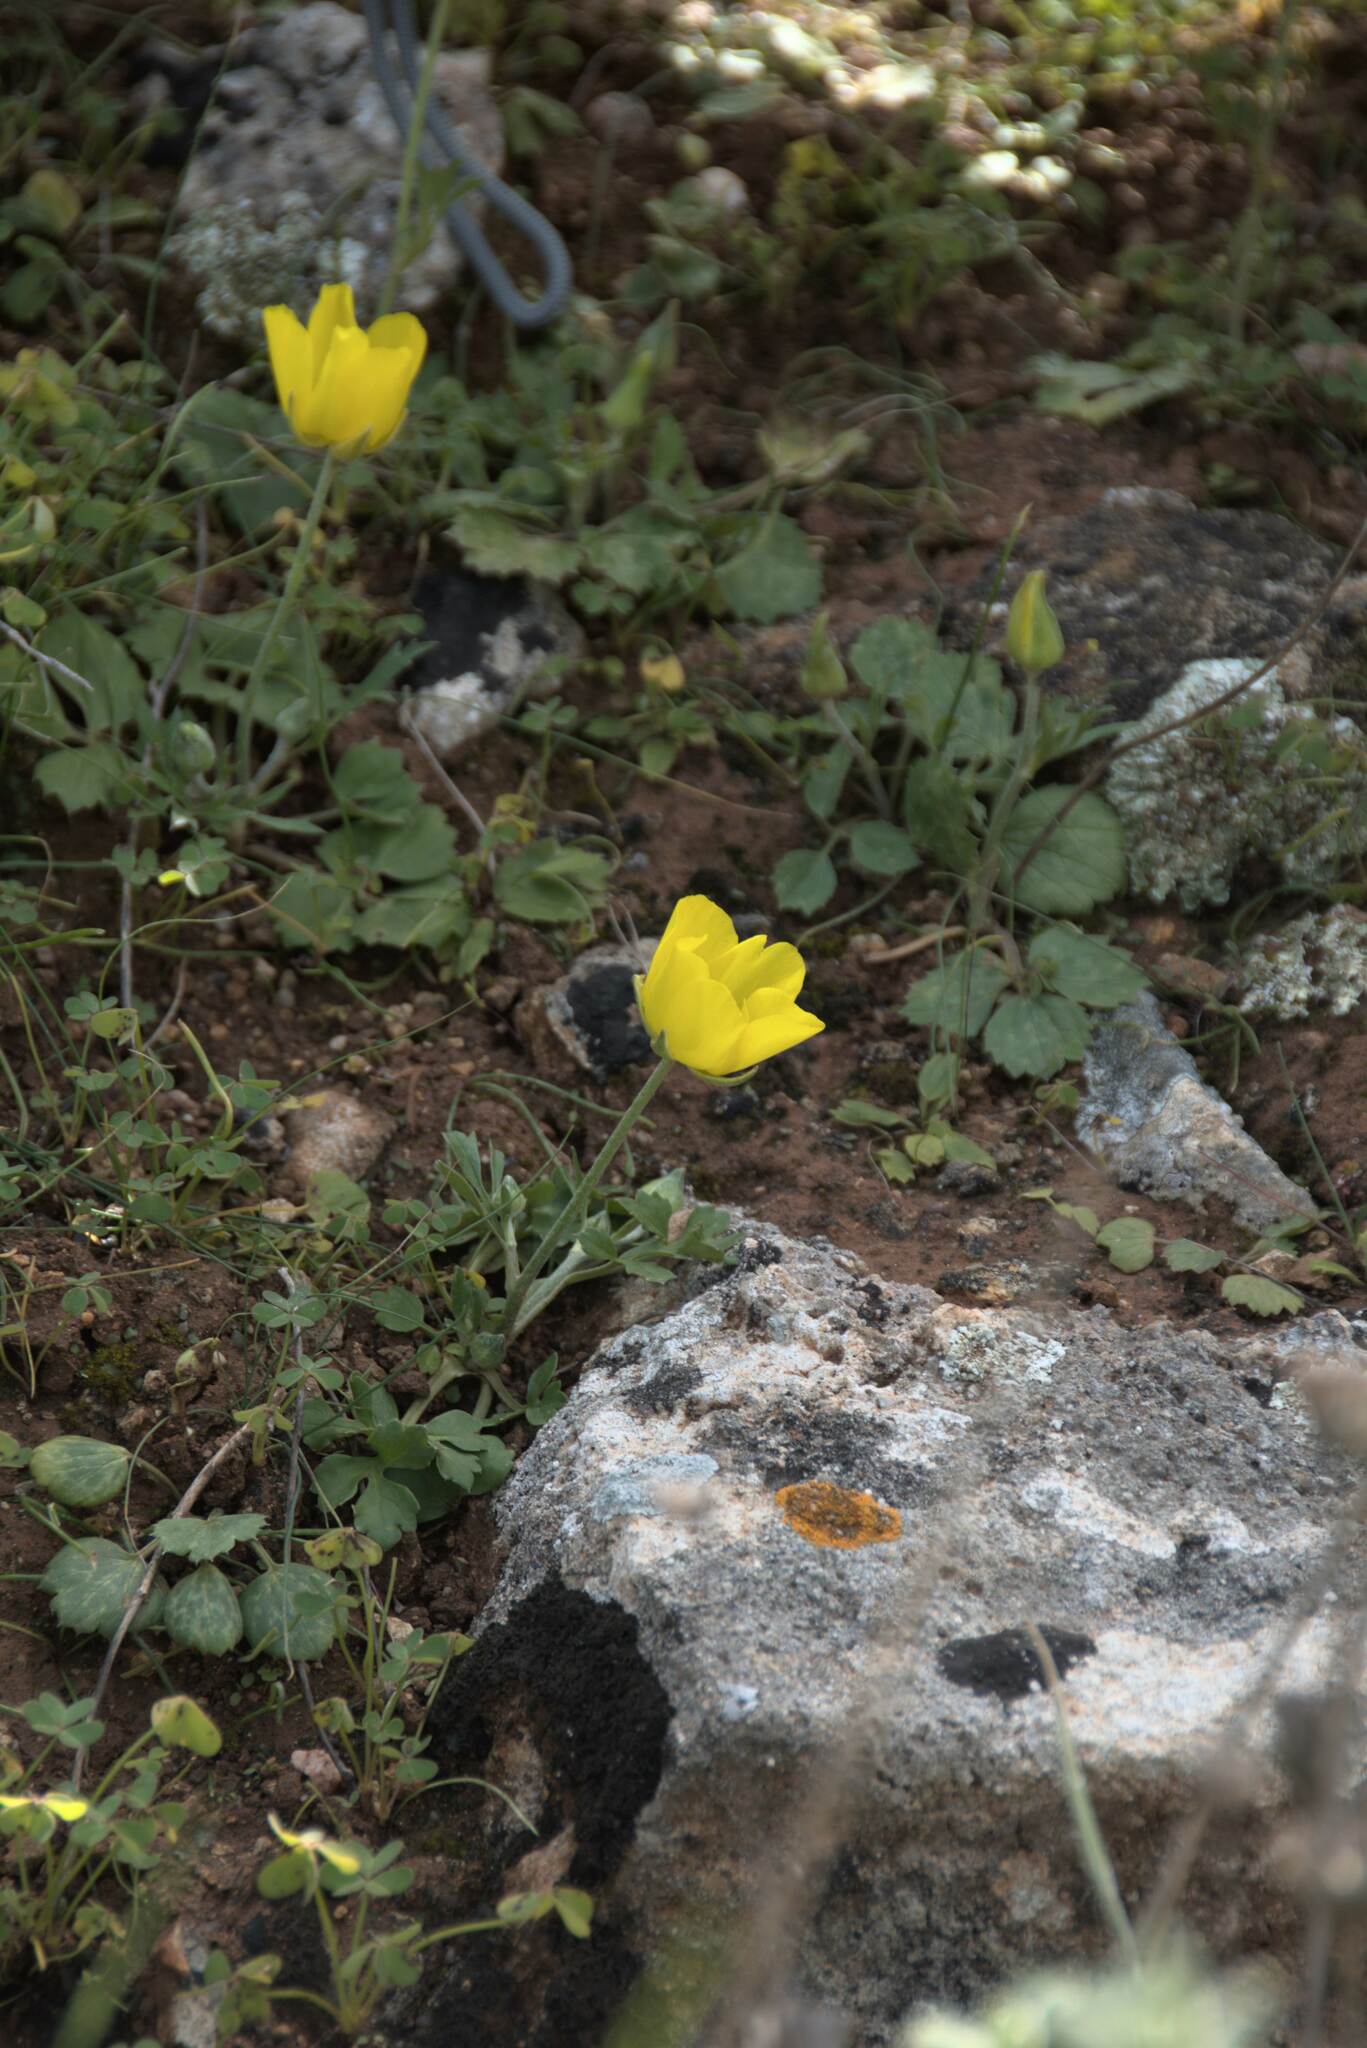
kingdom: Plantae
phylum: Tracheophyta
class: Magnoliopsida
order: Ranunculales
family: Ranunculaceae
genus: Ranunculus
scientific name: Ranunculus asiaticus
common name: Persian buttercup
